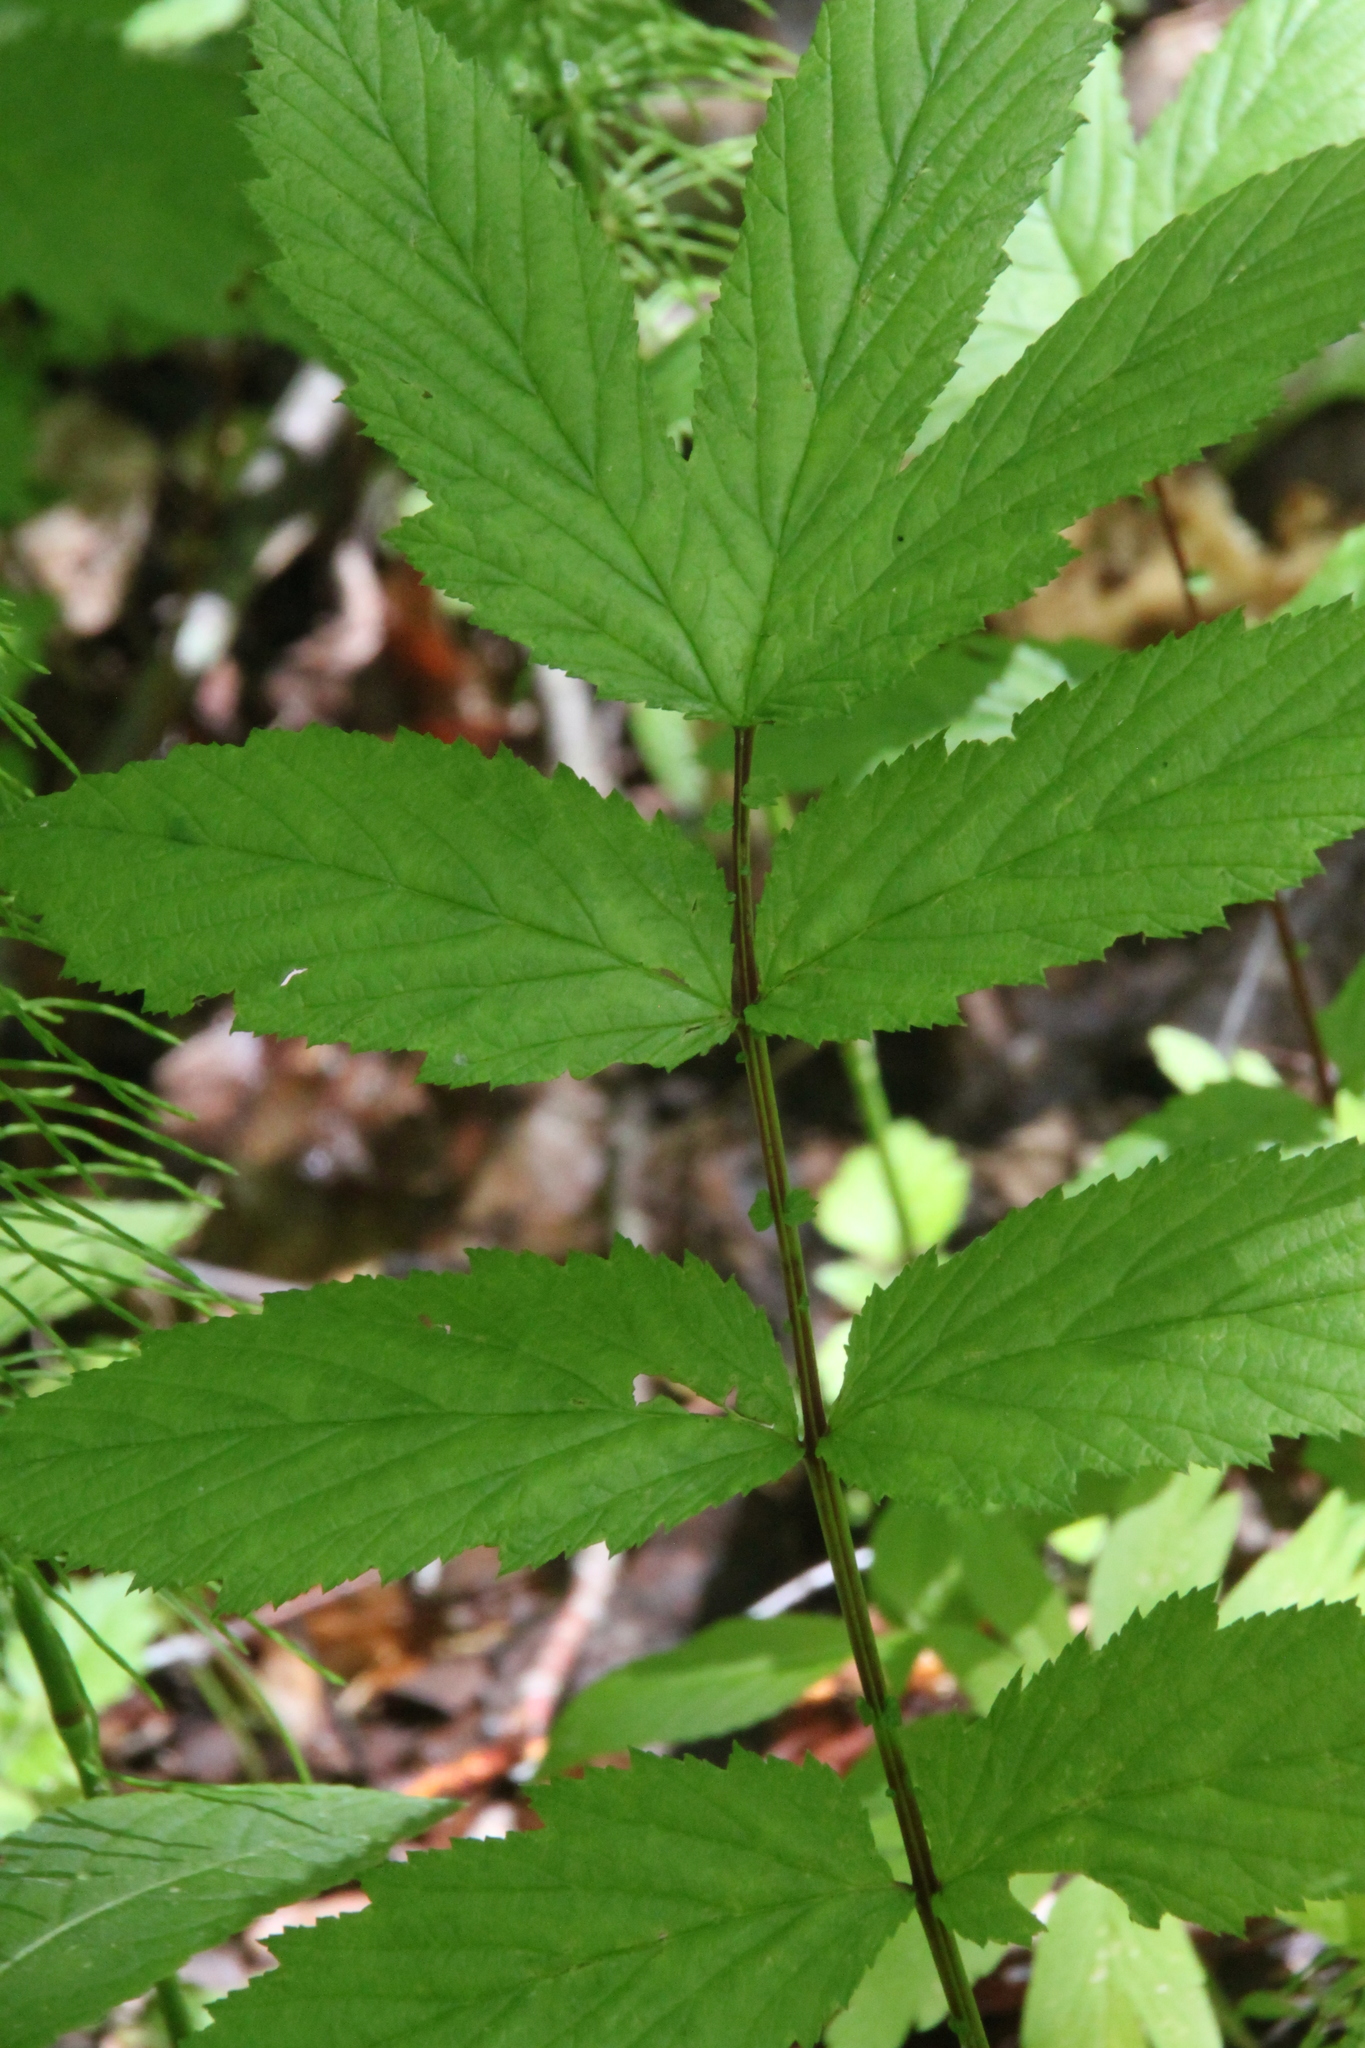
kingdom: Plantae
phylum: Tracheophyta
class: Magnoliopsida
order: Rosales
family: Rosaceae
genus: Filipendula
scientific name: Filipendula ulmaria
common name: Meadowsweet
